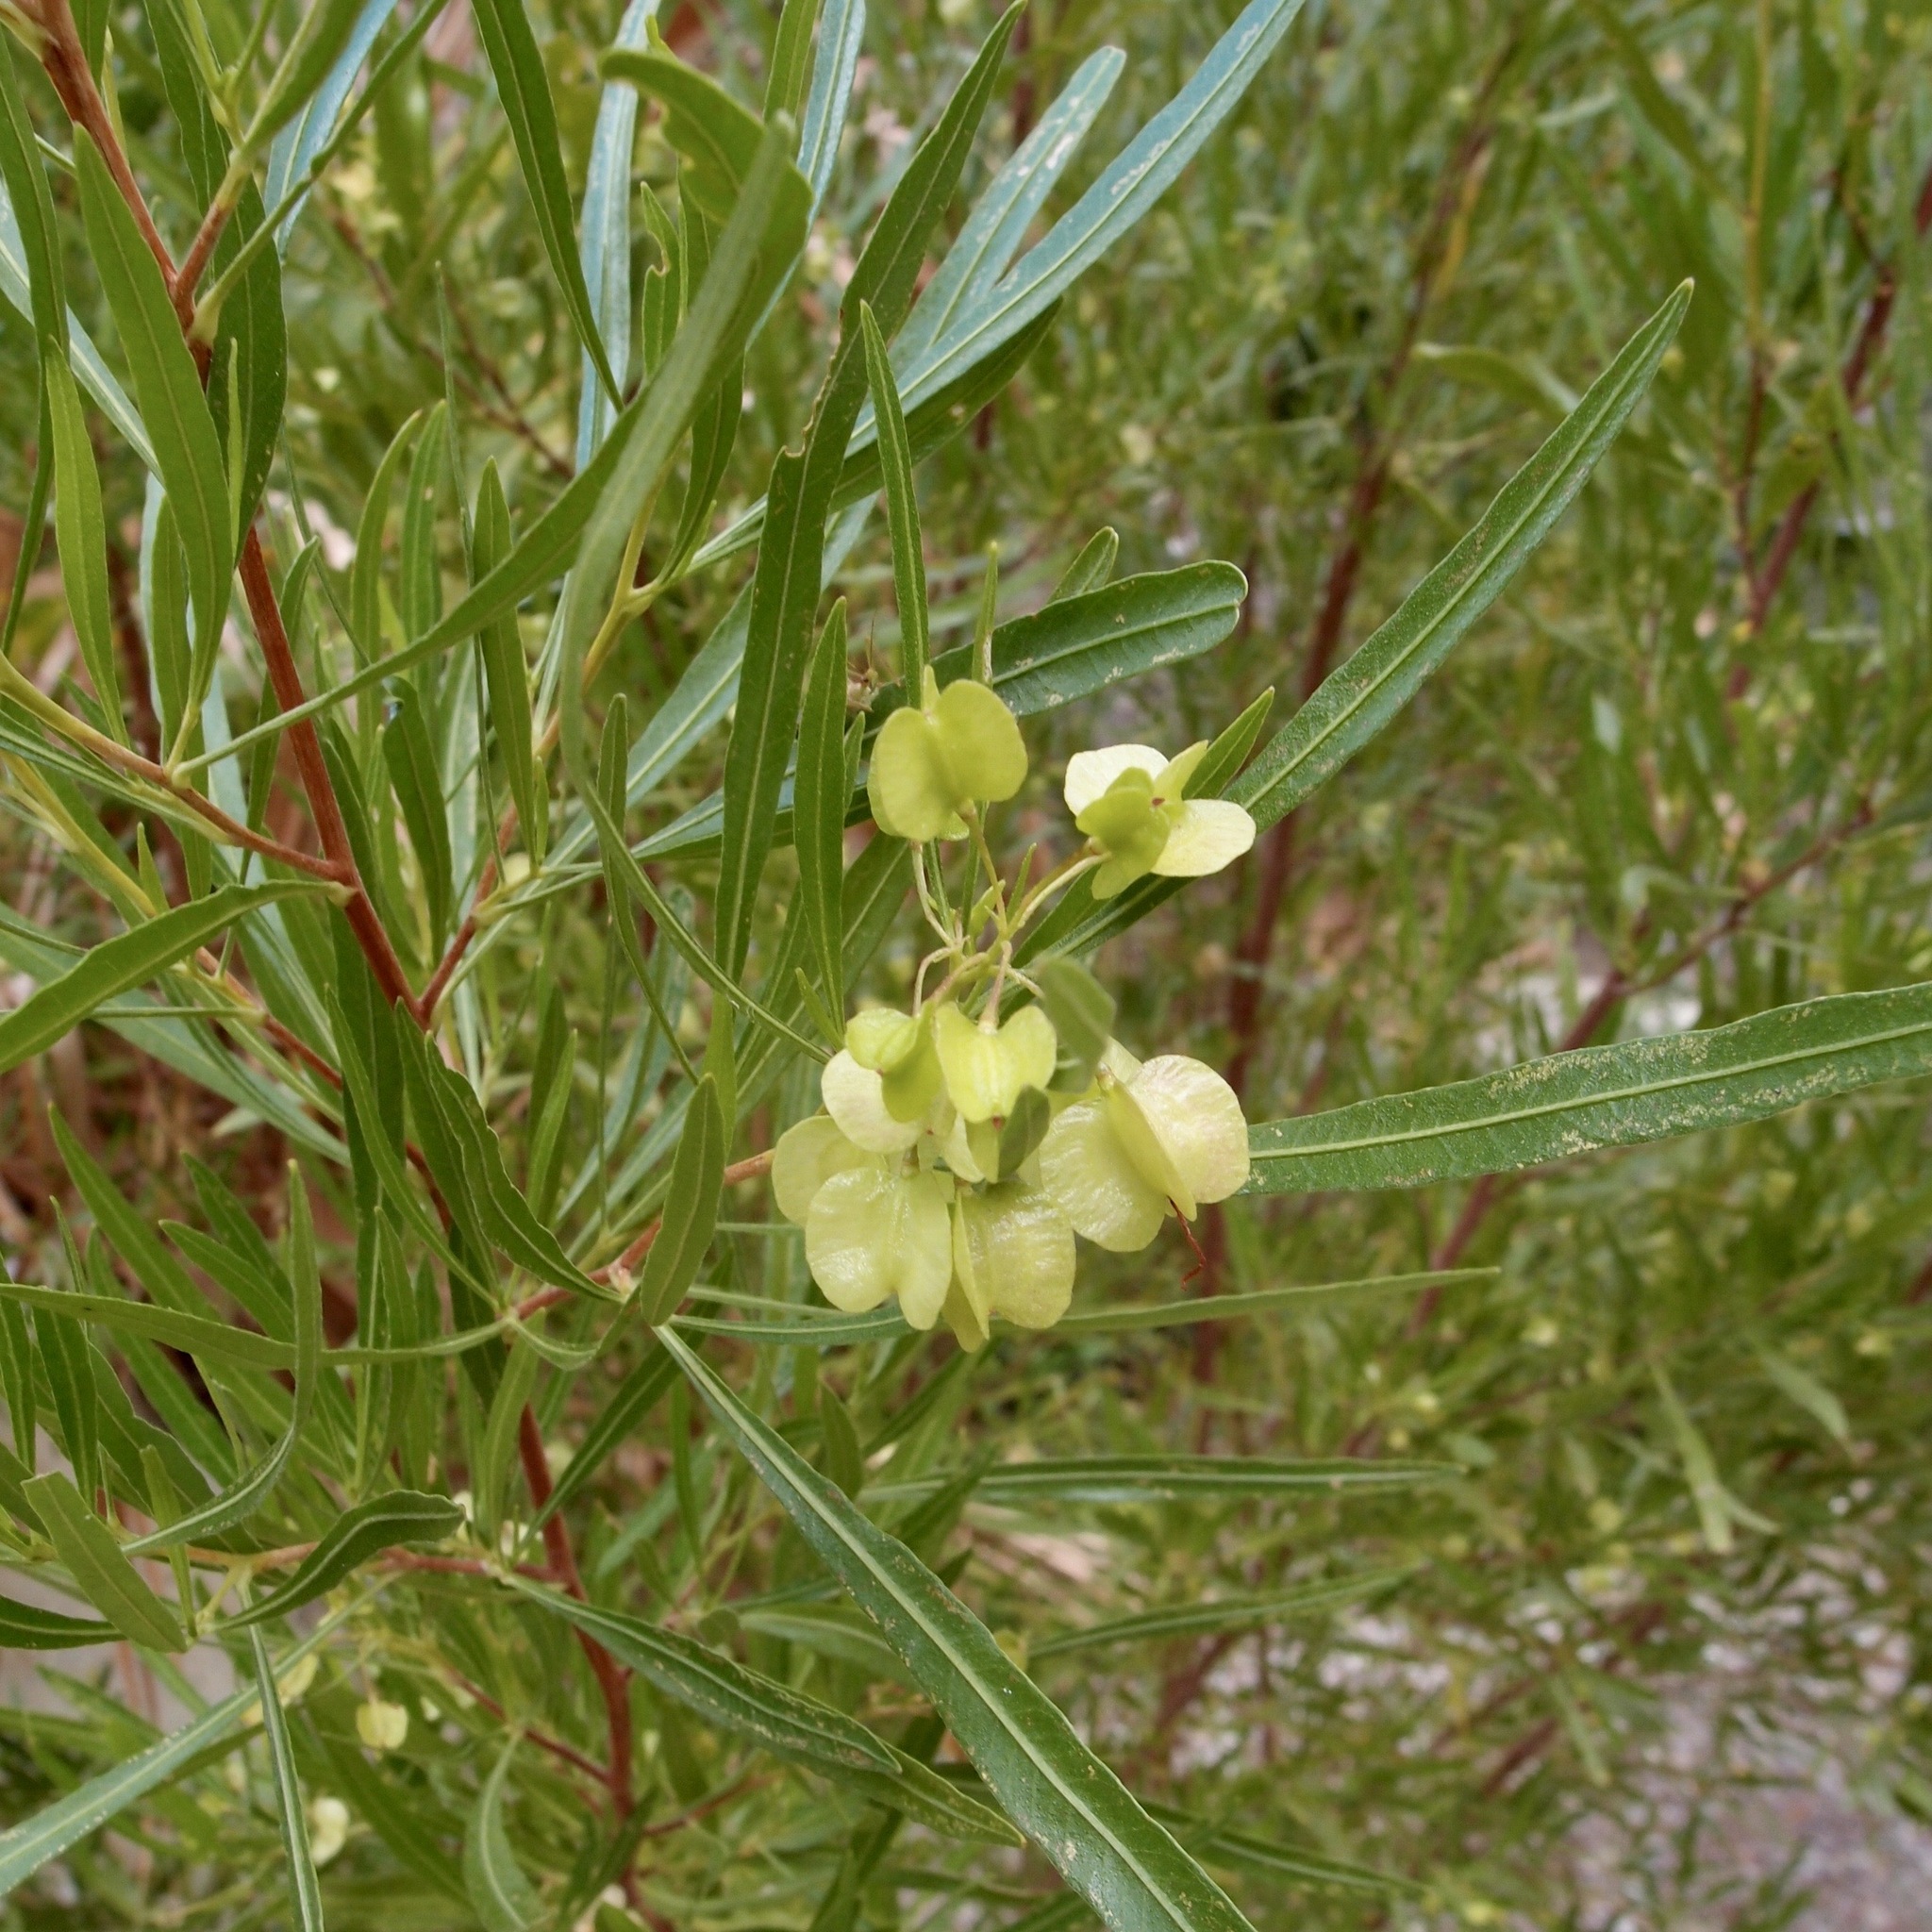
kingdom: Plantae
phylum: Tracheophyta
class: Magnoliopsida
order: Sapindales
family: Sapindaceae
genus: Dodonaea
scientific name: Dodonaea viscosa
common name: Hopbush
